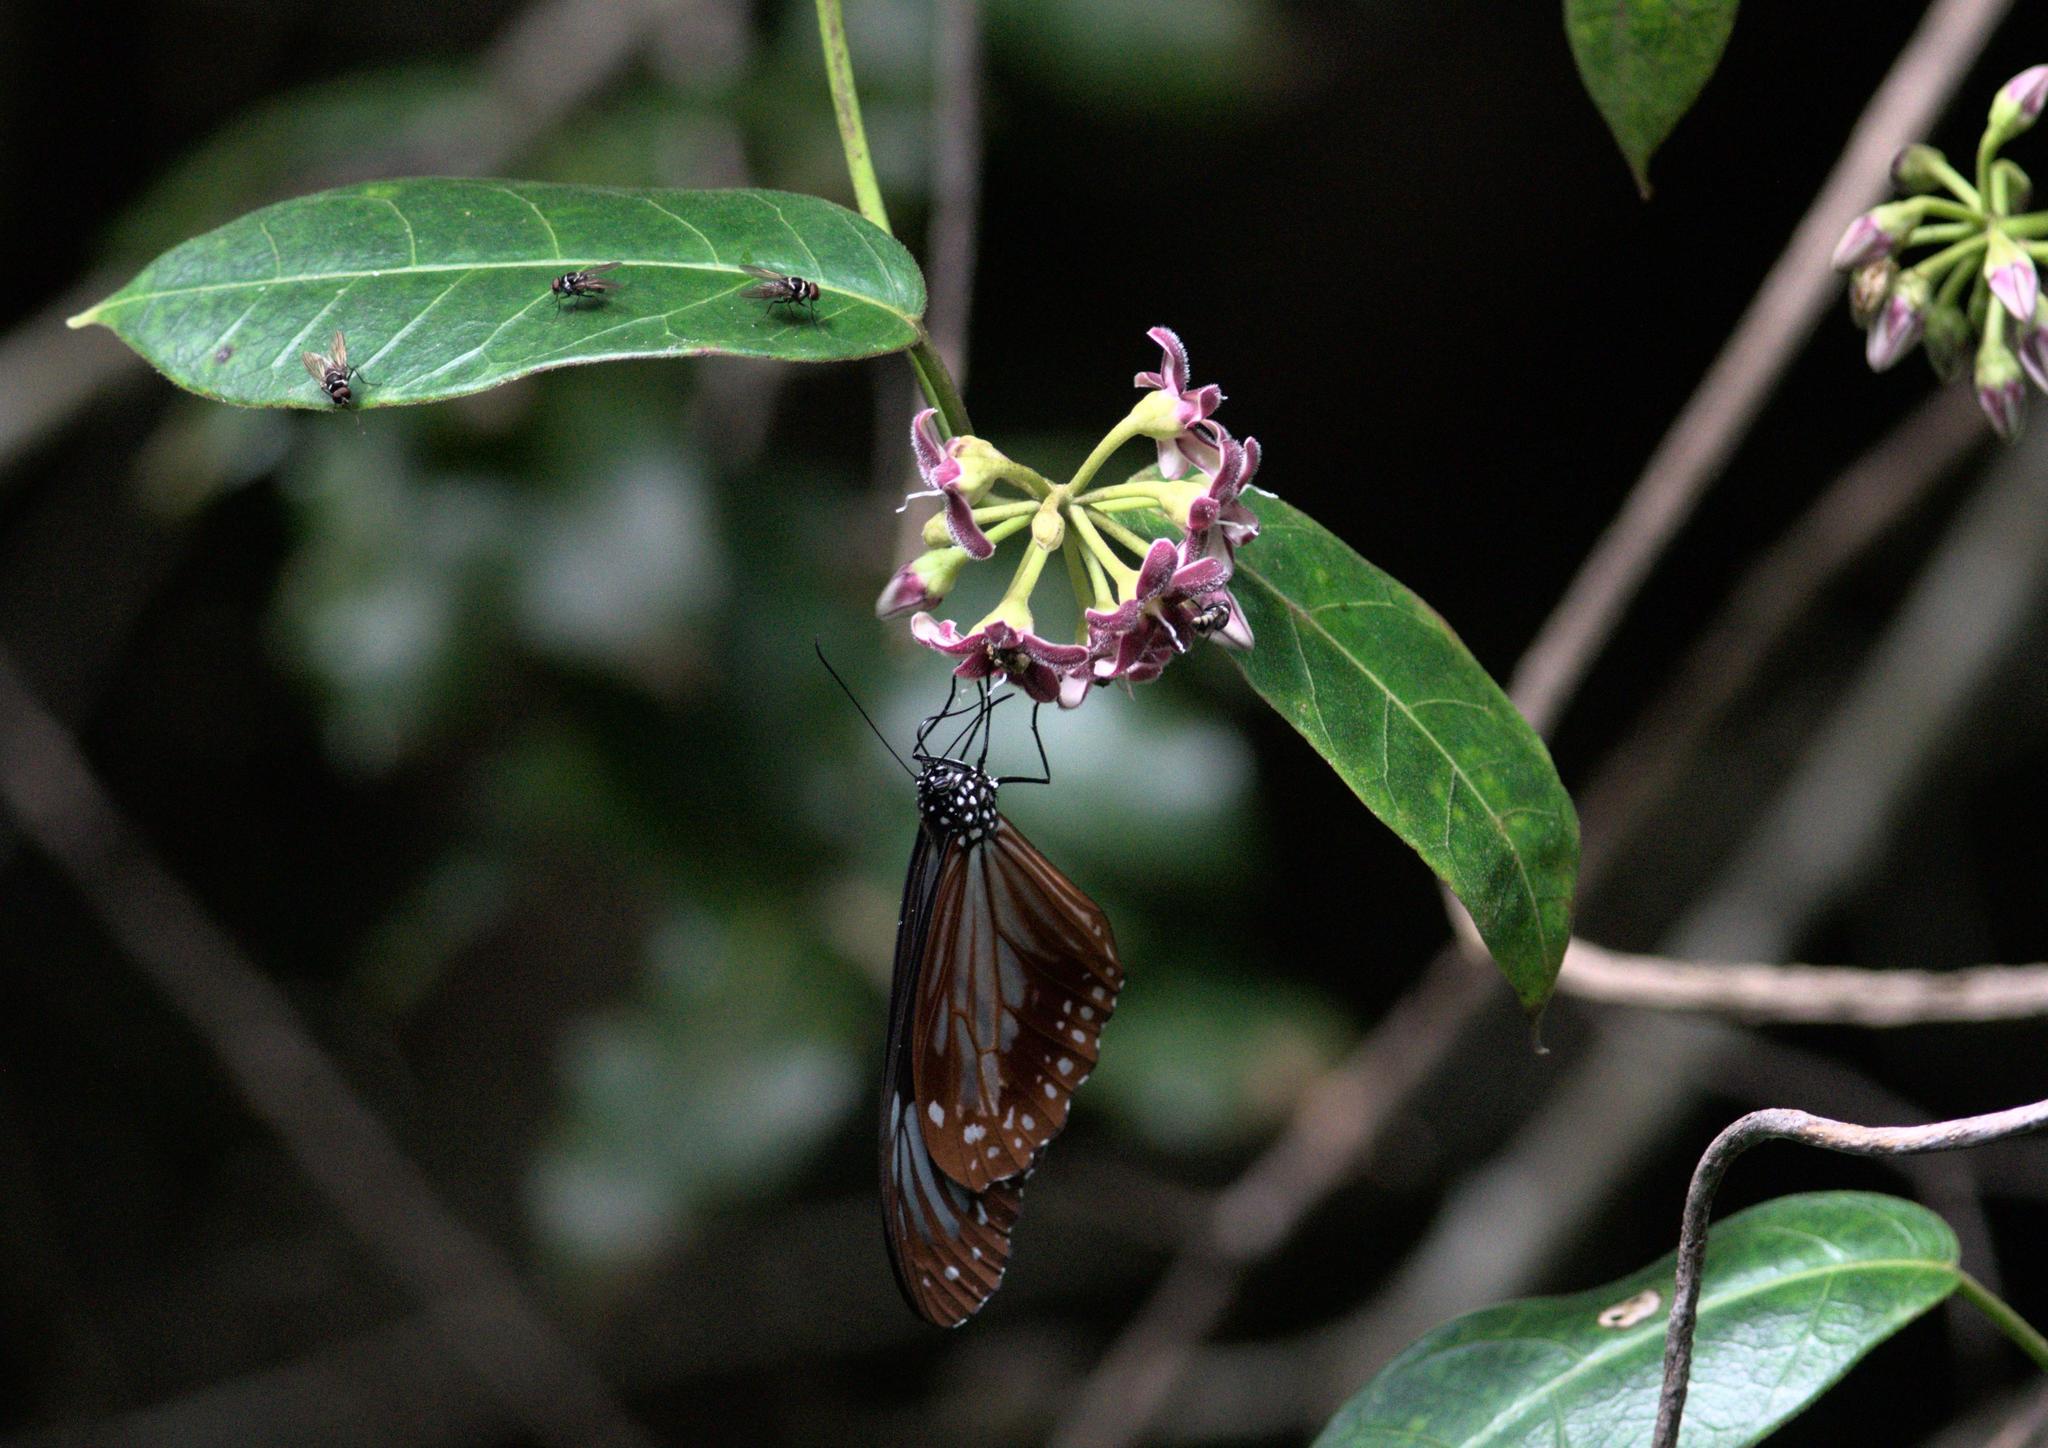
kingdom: Animalia
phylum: Arthropoda
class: Insecta
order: Lepidoptera
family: Nymphalidae
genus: Parantica
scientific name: Parantica sita
